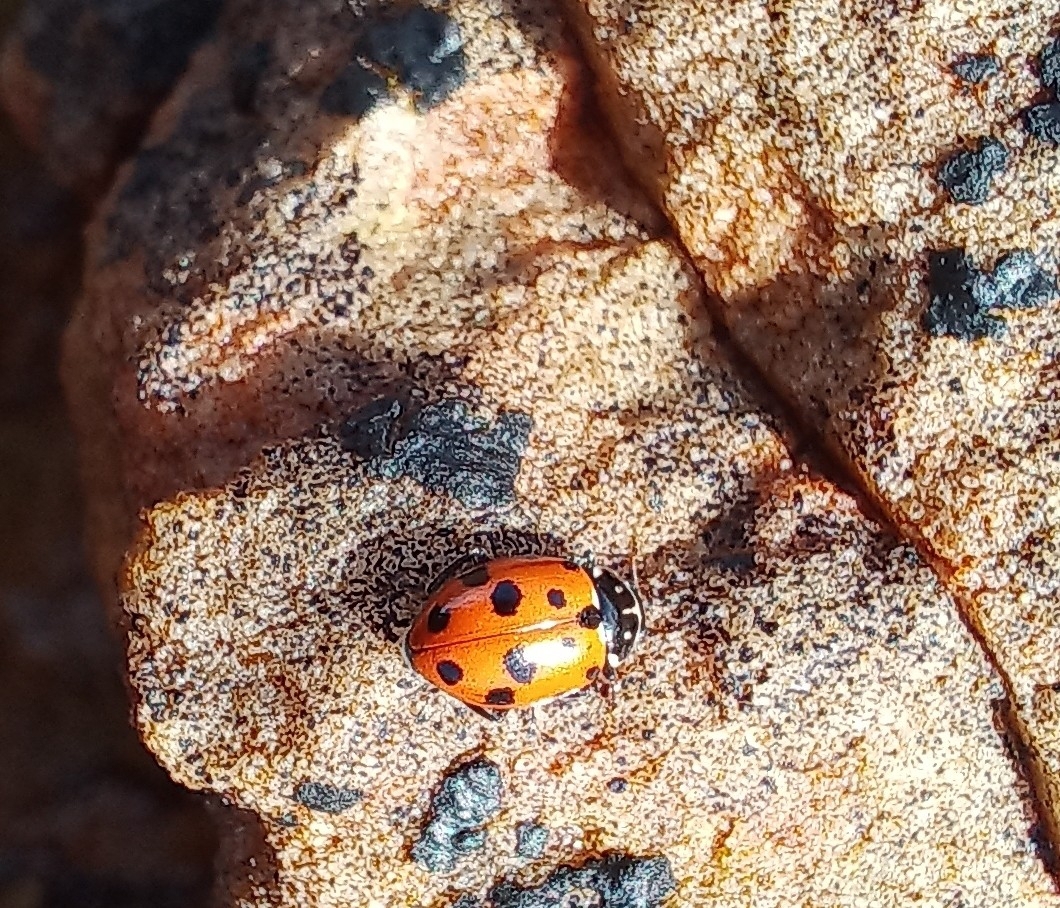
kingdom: Animalia
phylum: Arthropoda
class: Insecta
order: Coleoptera
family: Coccinellidae
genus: Hippodamia
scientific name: Hippodamia variegata
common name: Ladybird beetle
